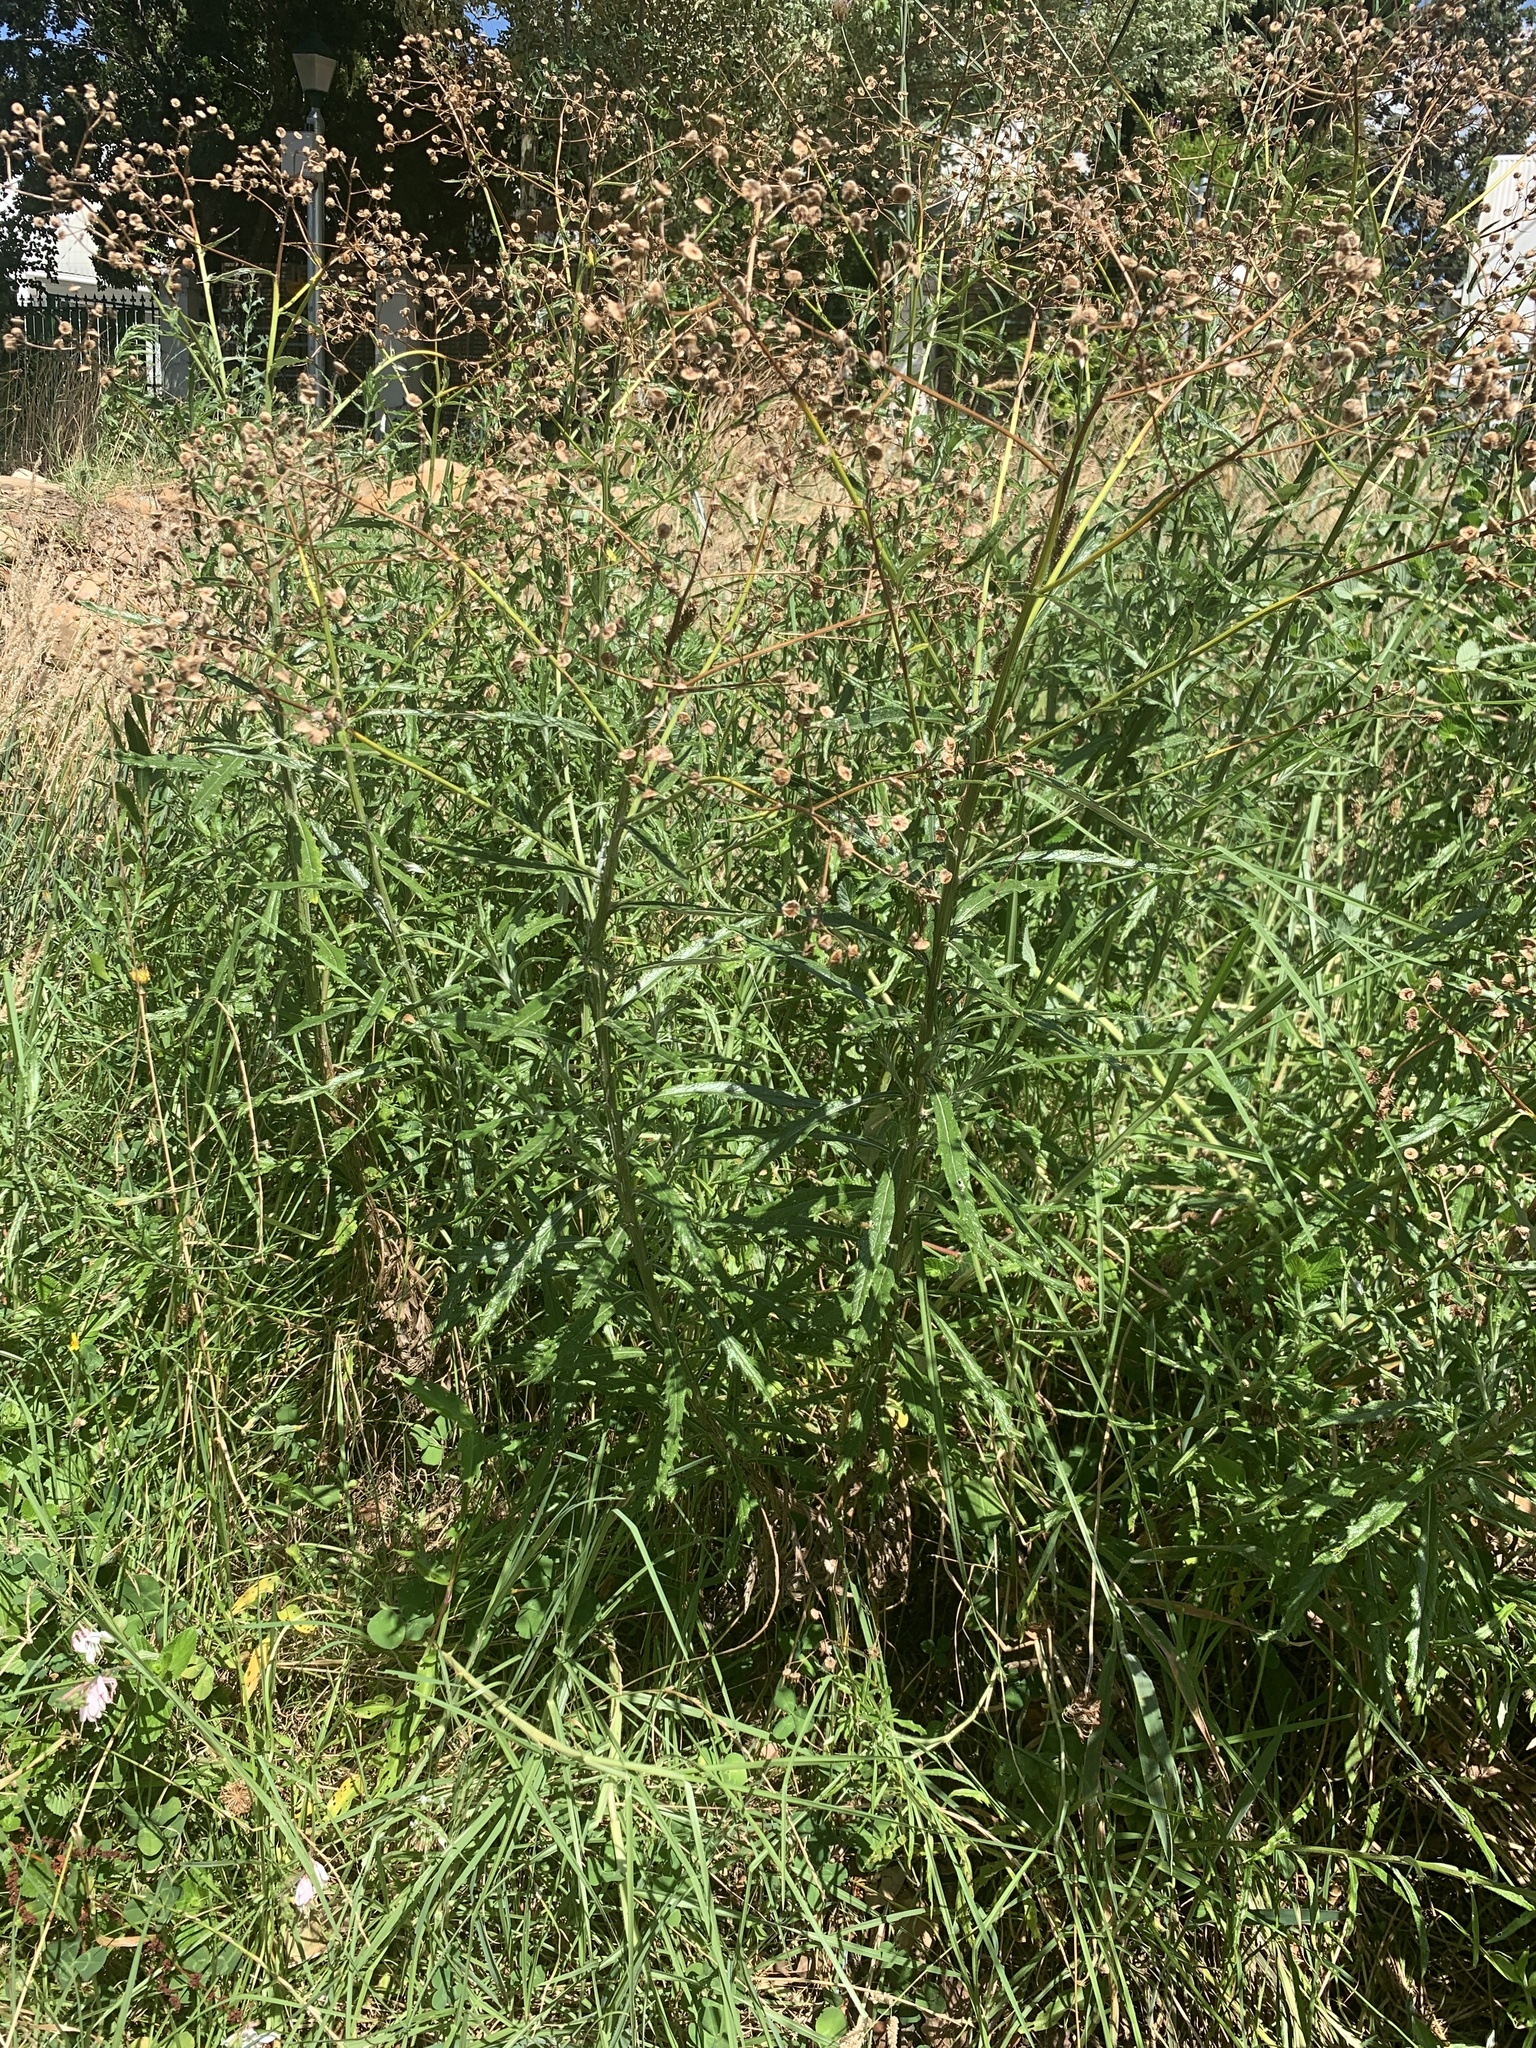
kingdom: Plantae
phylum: Tracheophyta
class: Magnoliopsida
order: Asterales
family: Asteraceae
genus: Senecio
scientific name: Senecio pterophorus
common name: Shoddy ragwort
